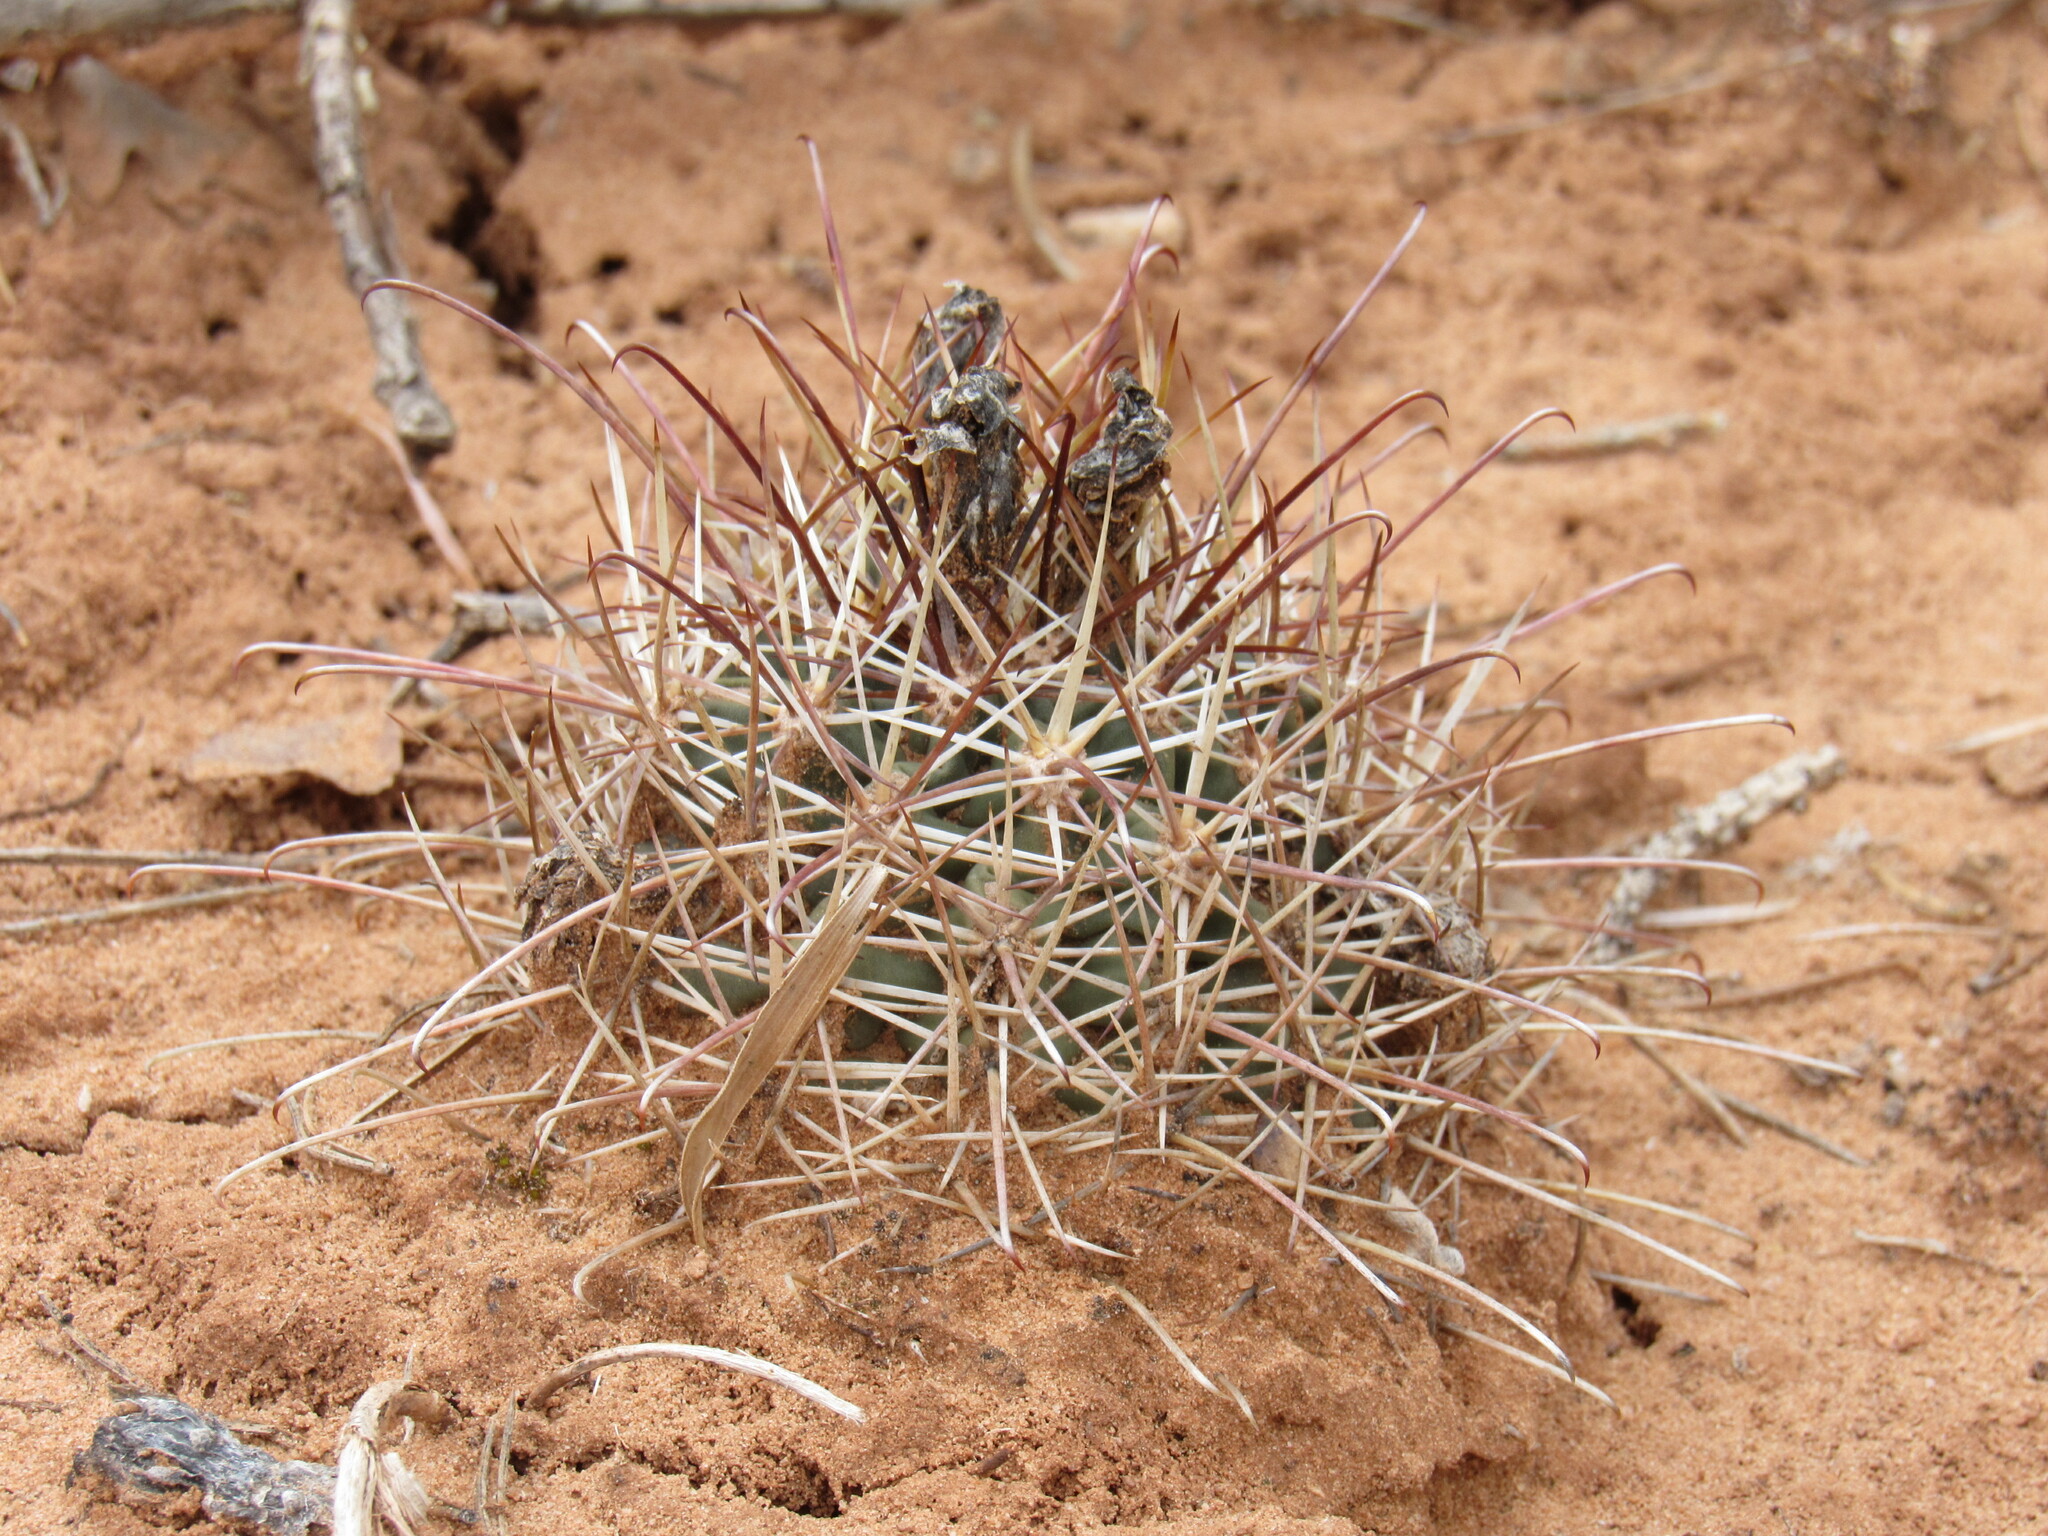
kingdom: Plantae
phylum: Tracheophyta
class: Magnoliopsida
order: Caryophyllales
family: Cactaceae
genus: Sclerocactus
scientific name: Sclerocactus parviflorus
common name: Small-flower fishhook cactus
